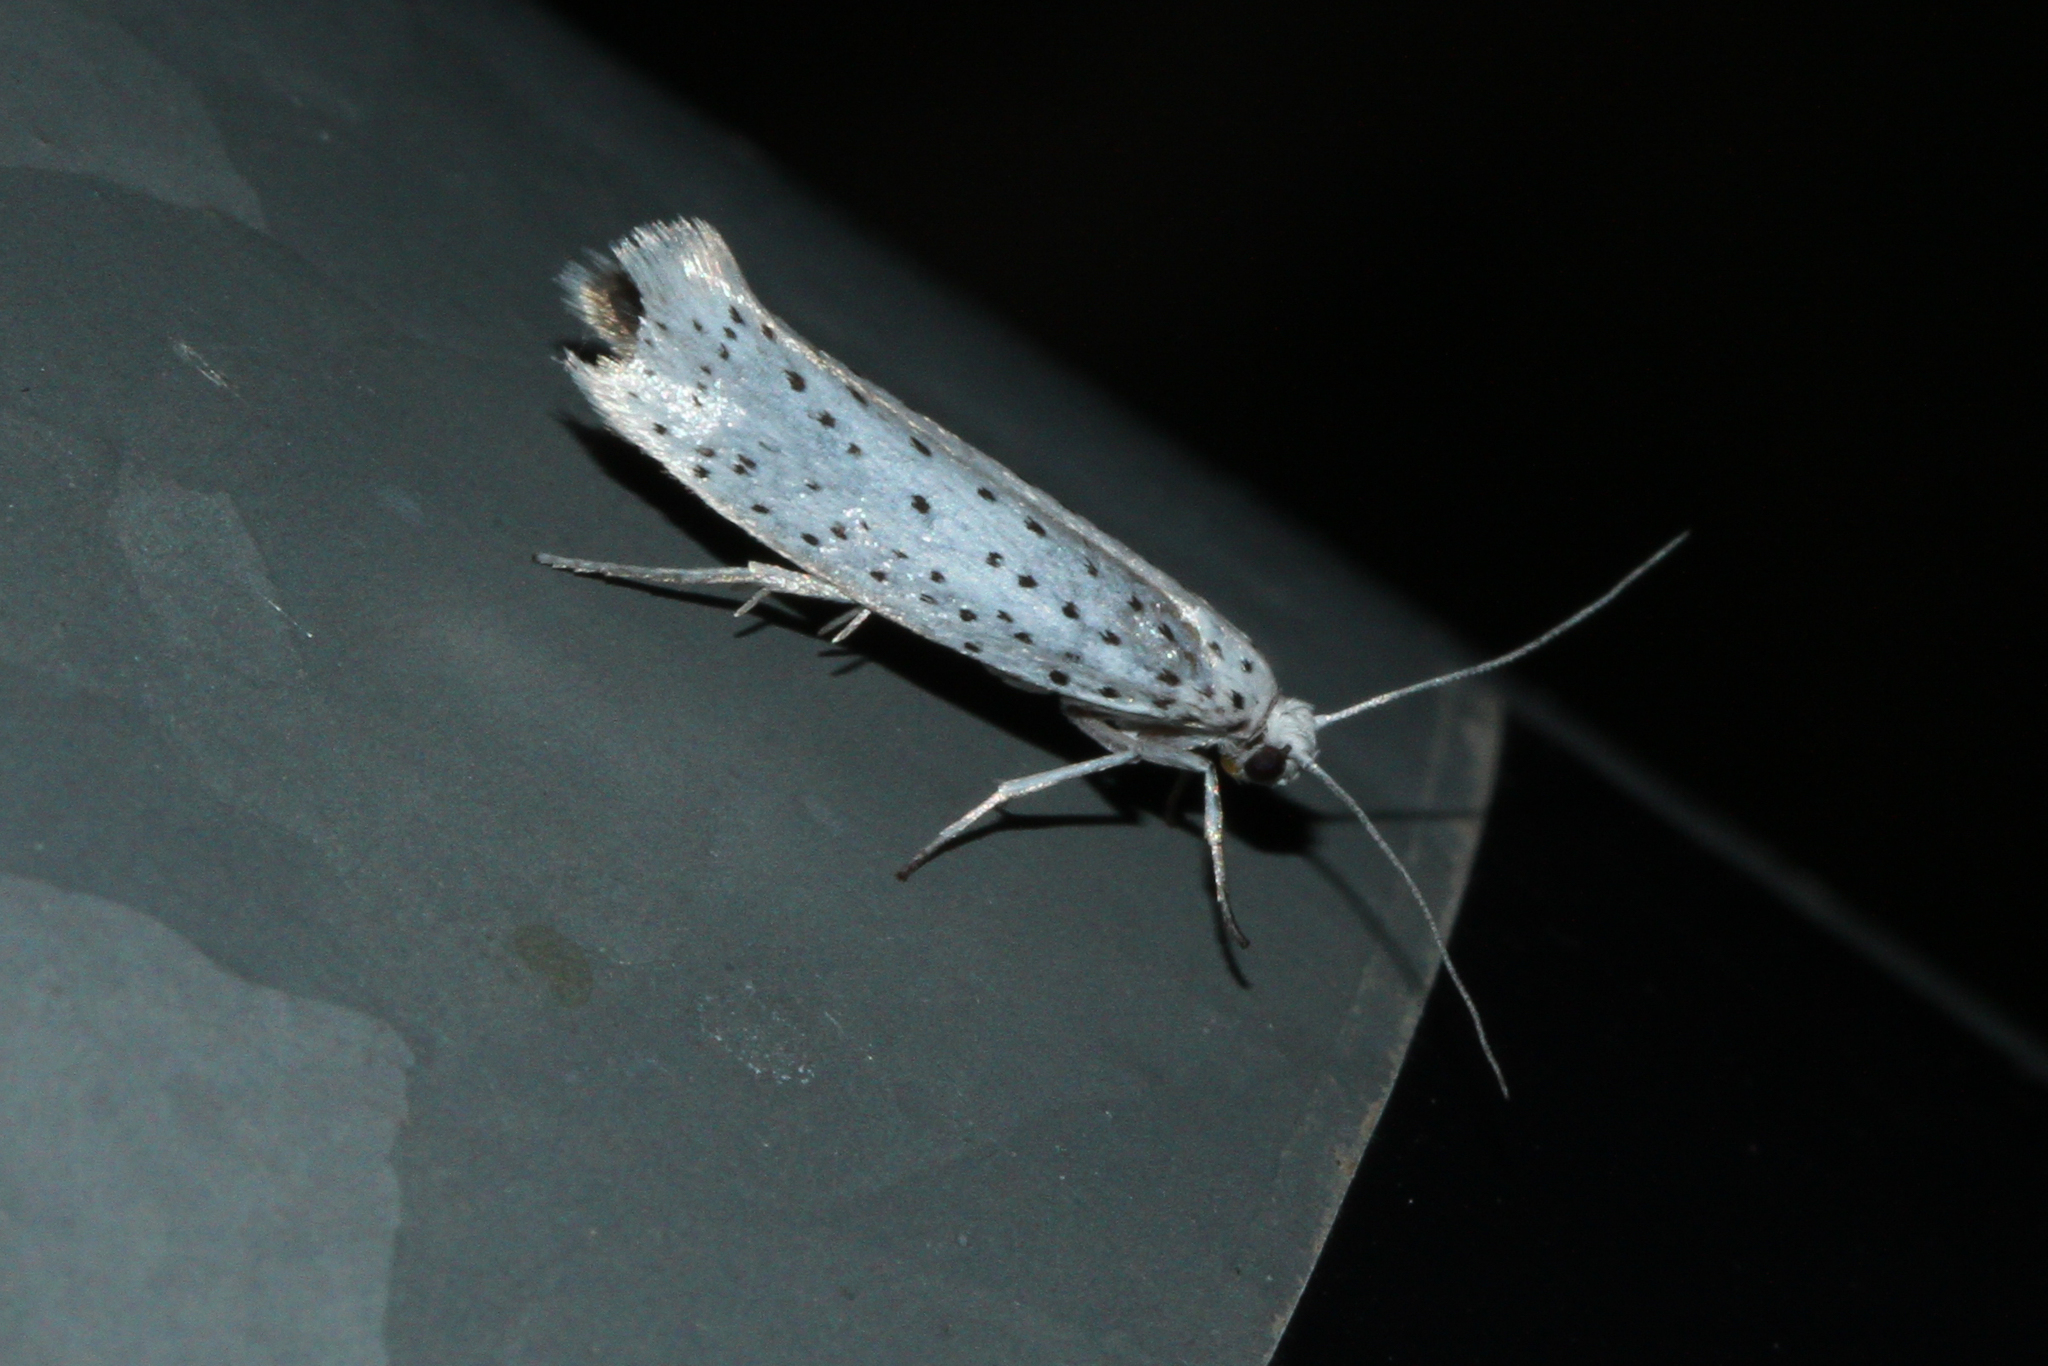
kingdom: Animalia
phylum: Arthropoda
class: Insecta
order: Lepidoptera
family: Yponomeutidae
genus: Yponomeuta
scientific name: Yponomeuta evonymella
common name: Bird-cherry ermine
